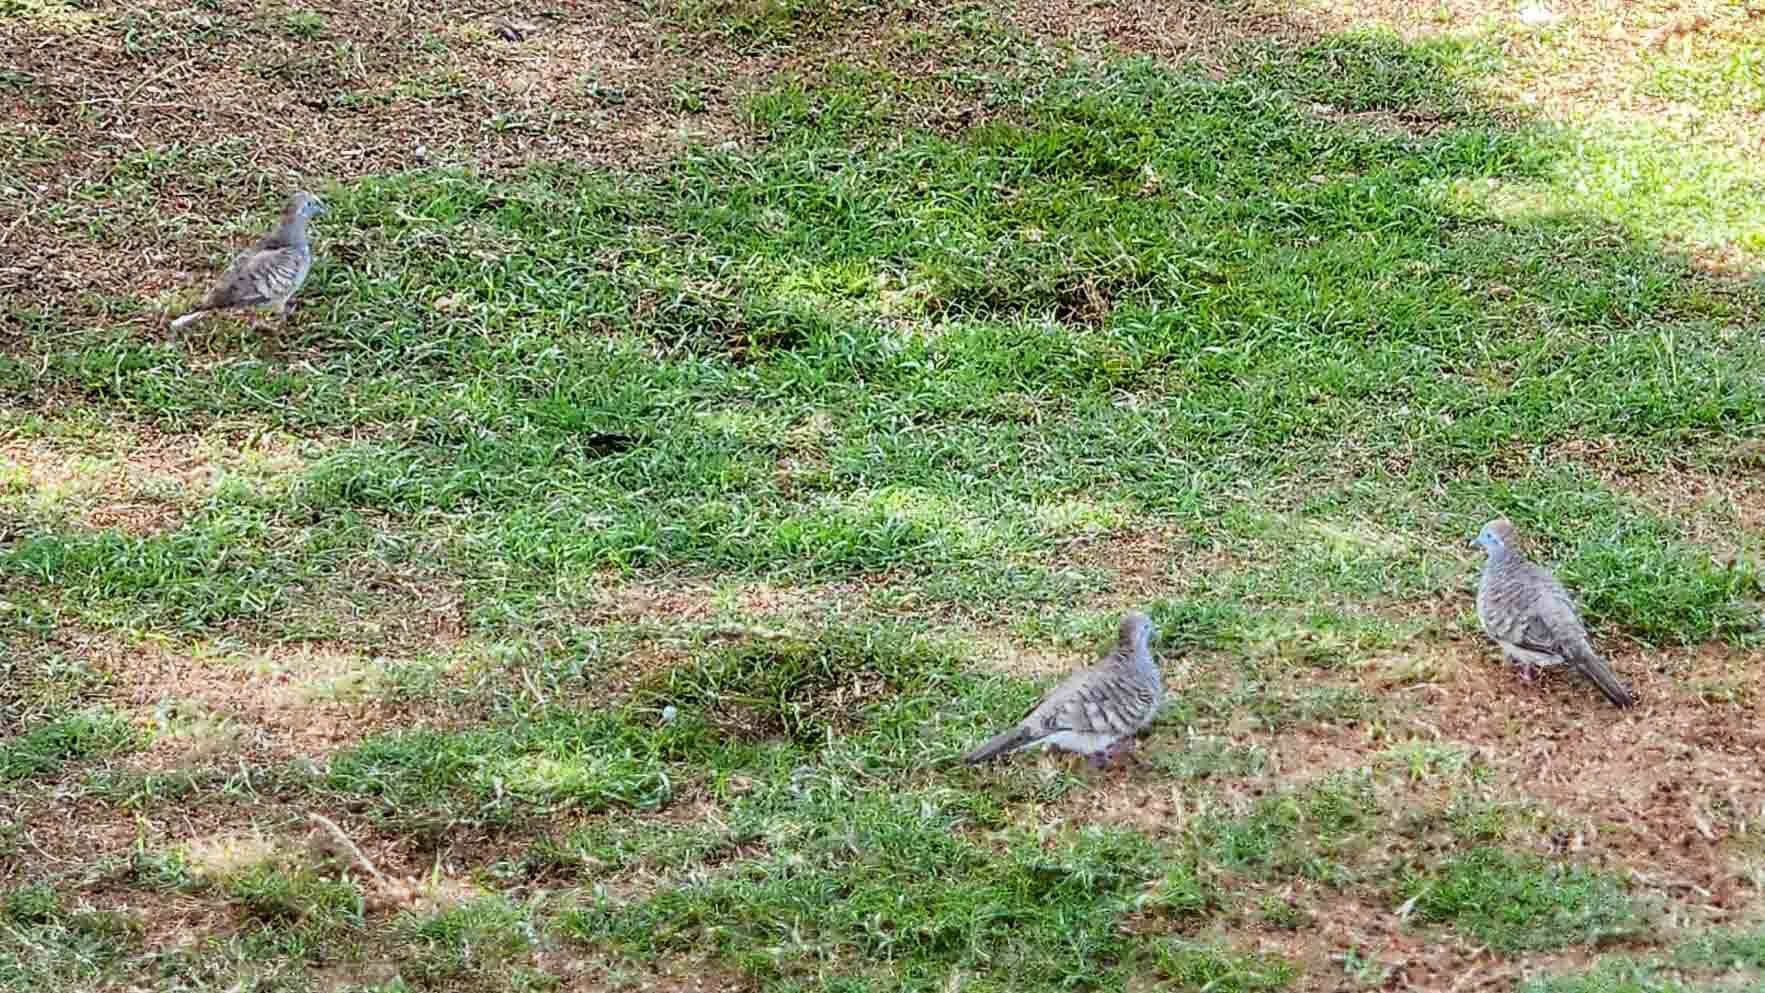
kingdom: Animalia
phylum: Chordata
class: Aves
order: Columbiformes
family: Columbidae
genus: Geopelia
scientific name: Geopelia striata
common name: Zebra dove
